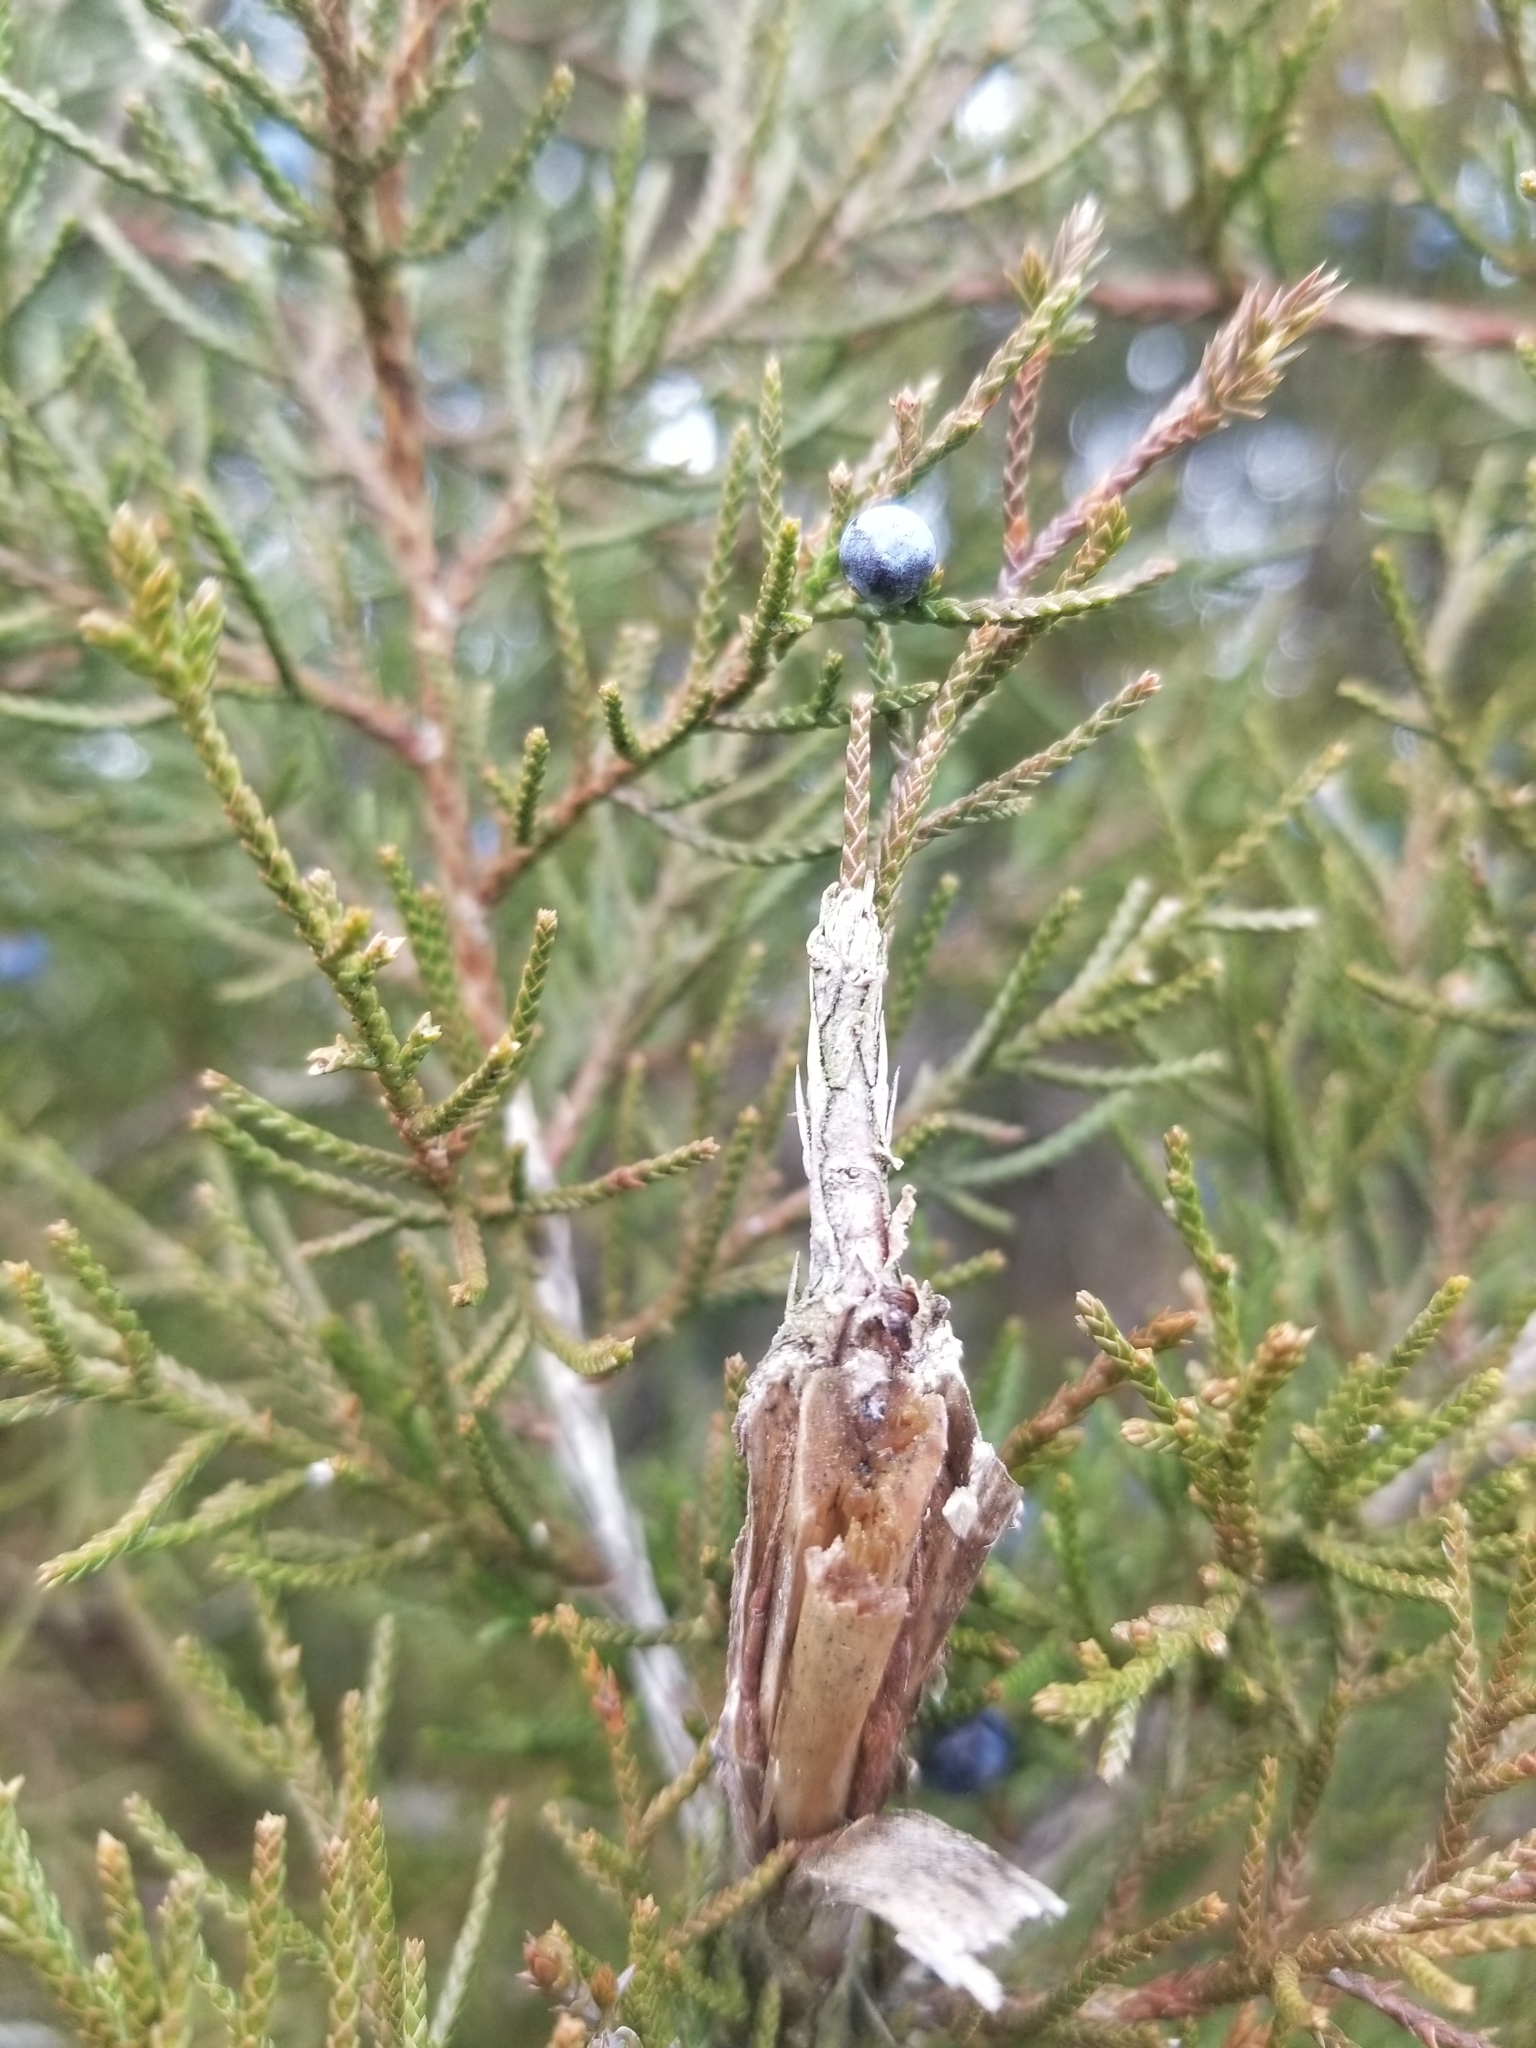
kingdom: Animalia
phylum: Arthropoda
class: Insecta
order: Lepidoptera
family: Psychidae
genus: Thyridopteryx
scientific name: Thyridopteryx ephemeraeformis
